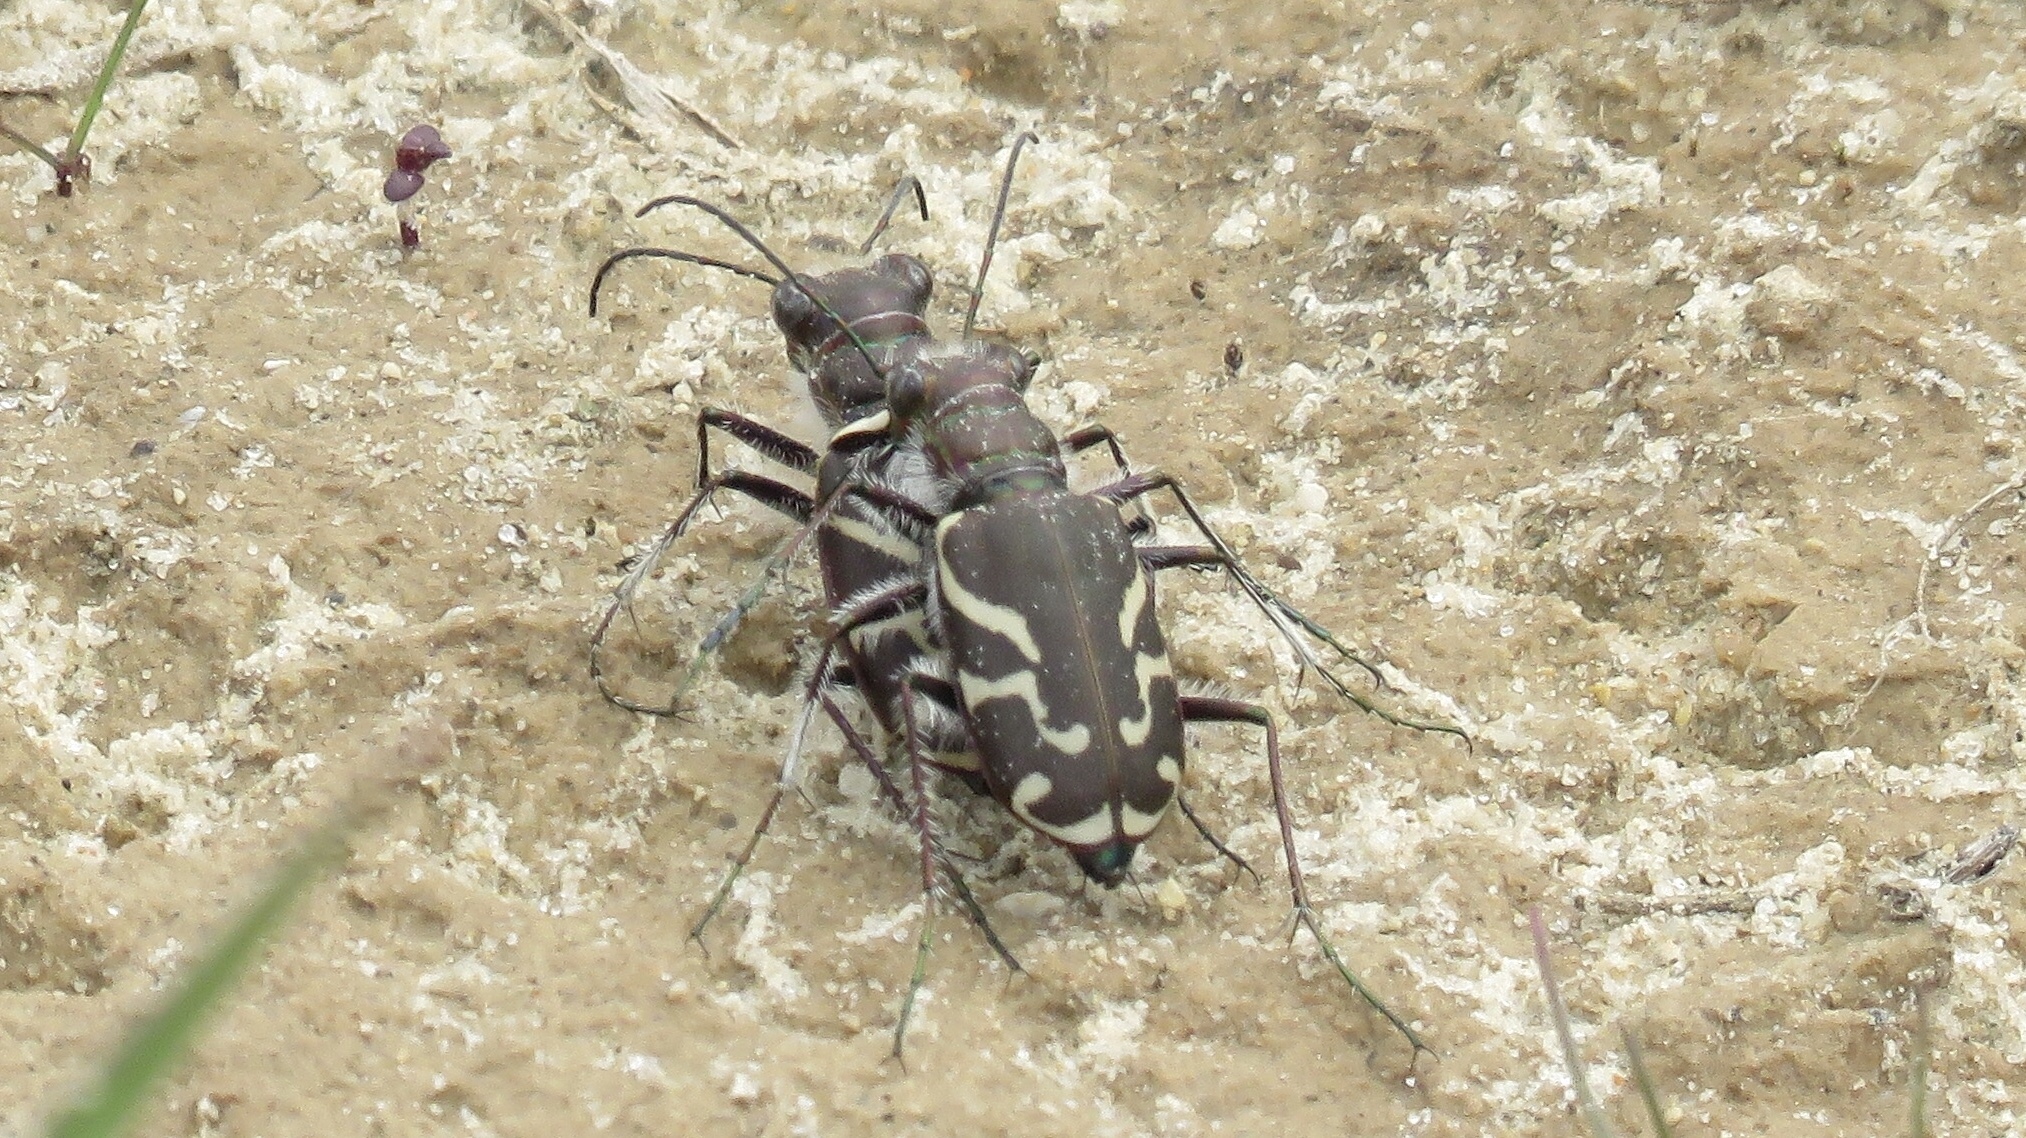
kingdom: Animalia
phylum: Arthropoda
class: Insecta
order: Coleoptera
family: Carabidae
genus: Cicindela
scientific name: Cicindela tranquebarica
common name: Oblique-lined tiger beetle
